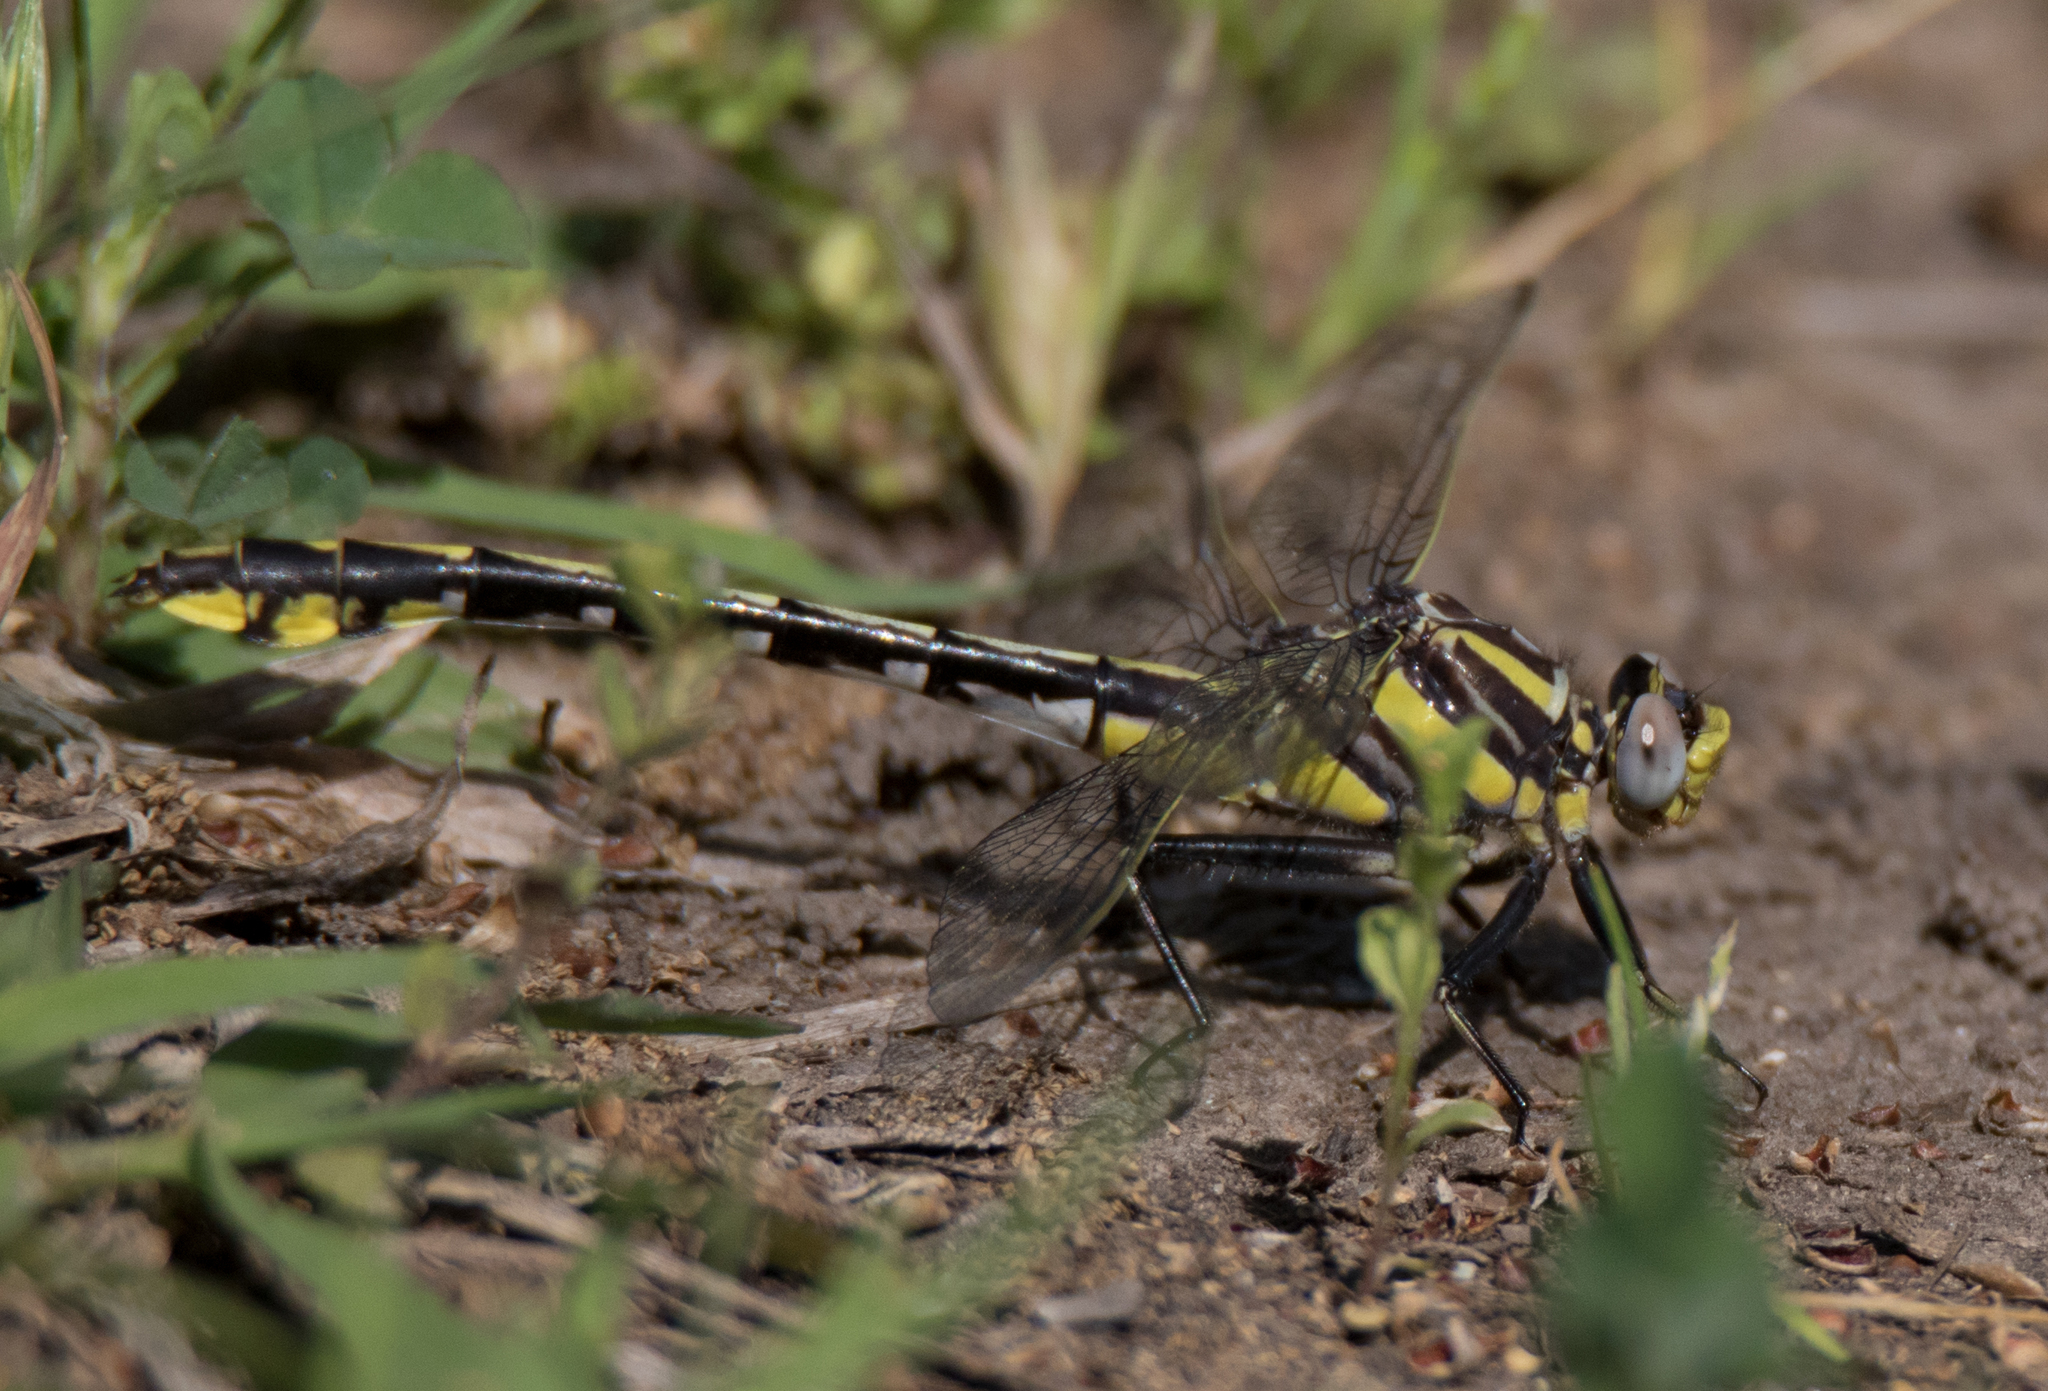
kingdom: Animalia
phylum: Arthropoda
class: Insecta
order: Odonata
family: Gomphidae
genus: Gomphurus
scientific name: Gomphurus externus
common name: Plains clubtail
